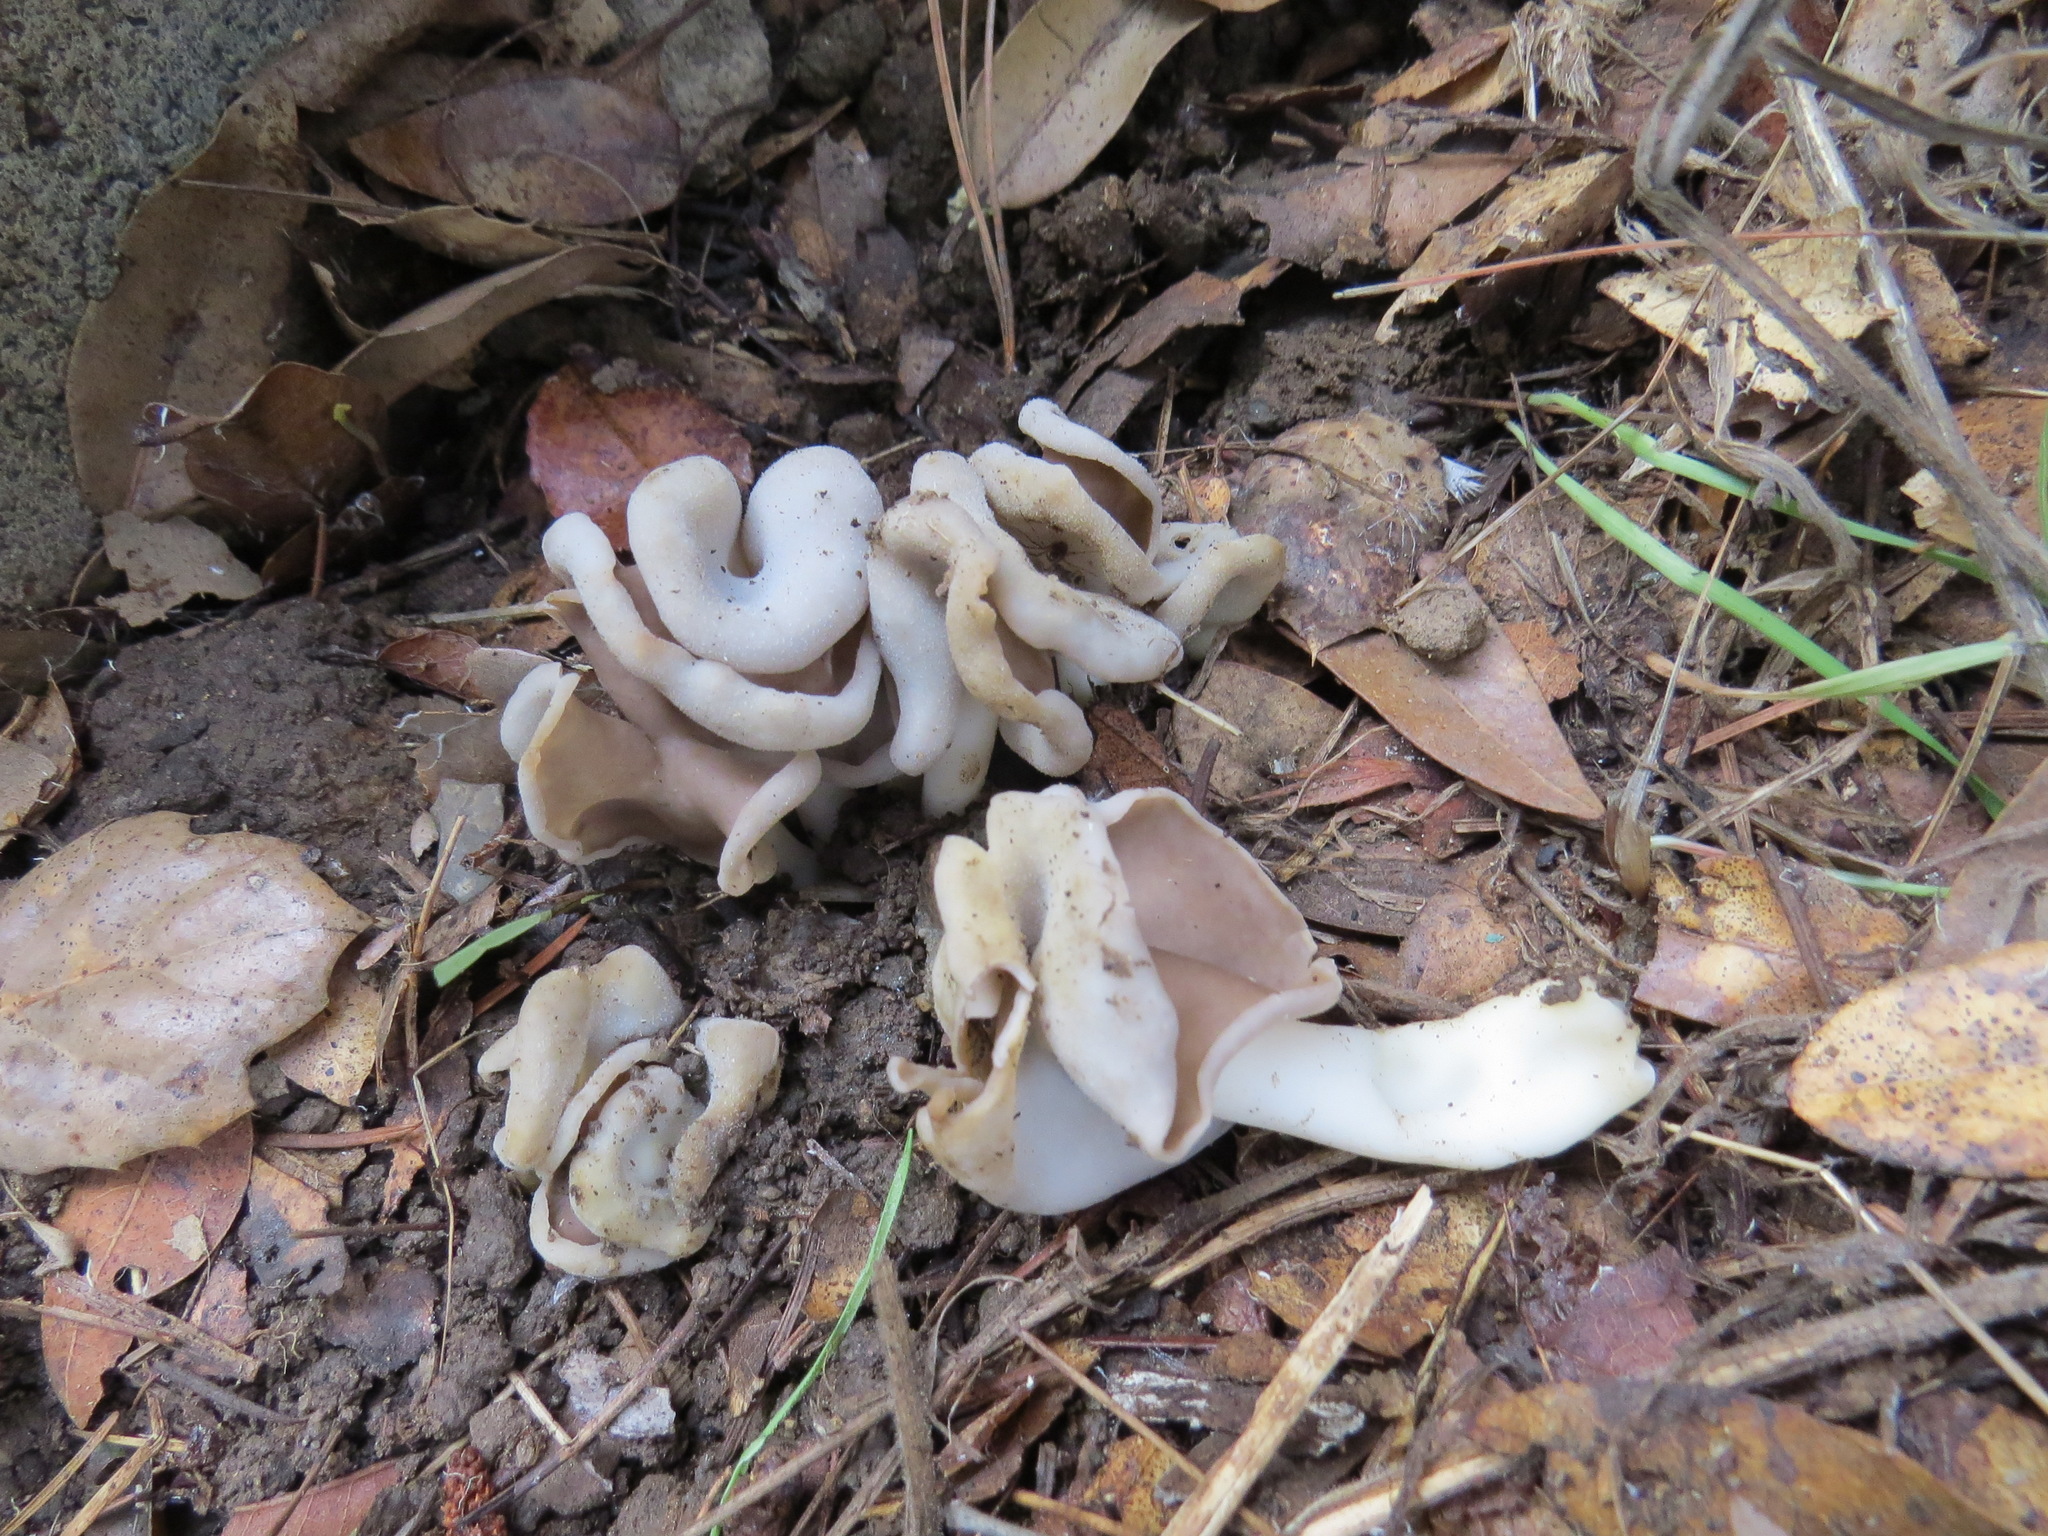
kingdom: Fungi
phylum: Ascomycota
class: Pezizomycetes
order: Pezizales
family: Helvellaceae
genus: Helvella
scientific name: Helvella compressa
